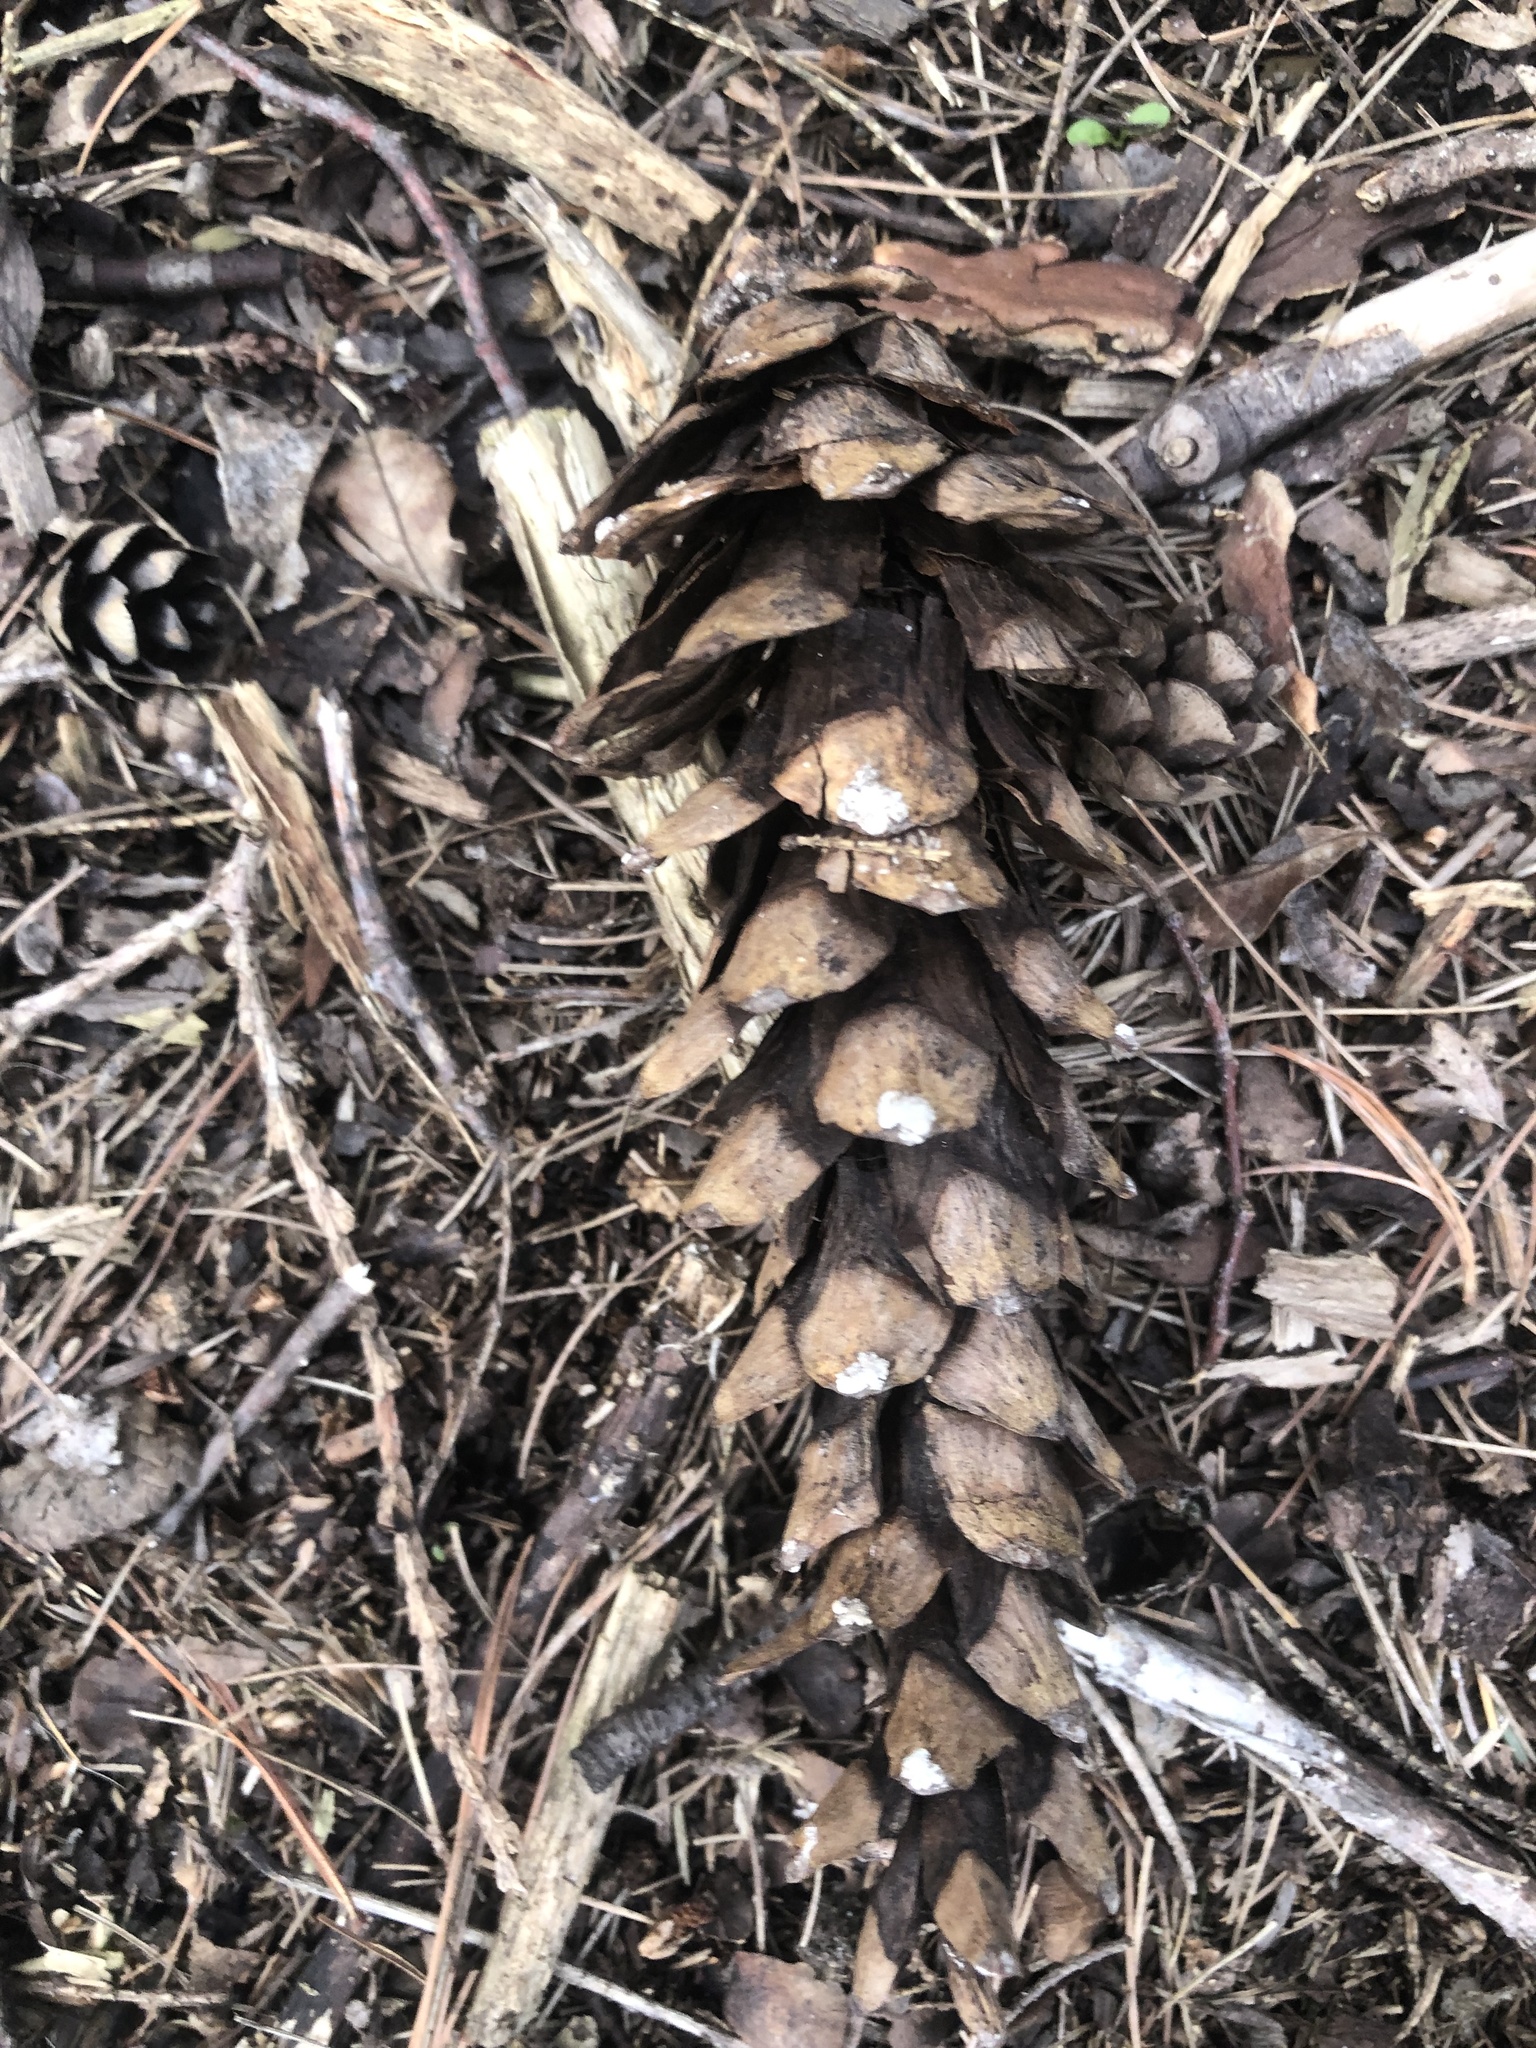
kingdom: Plantae
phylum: Tracheophyta
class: Pinopsida
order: Pinales
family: Pinaceae
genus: Pinus
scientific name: Pinus strobus
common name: Weymouth pine
